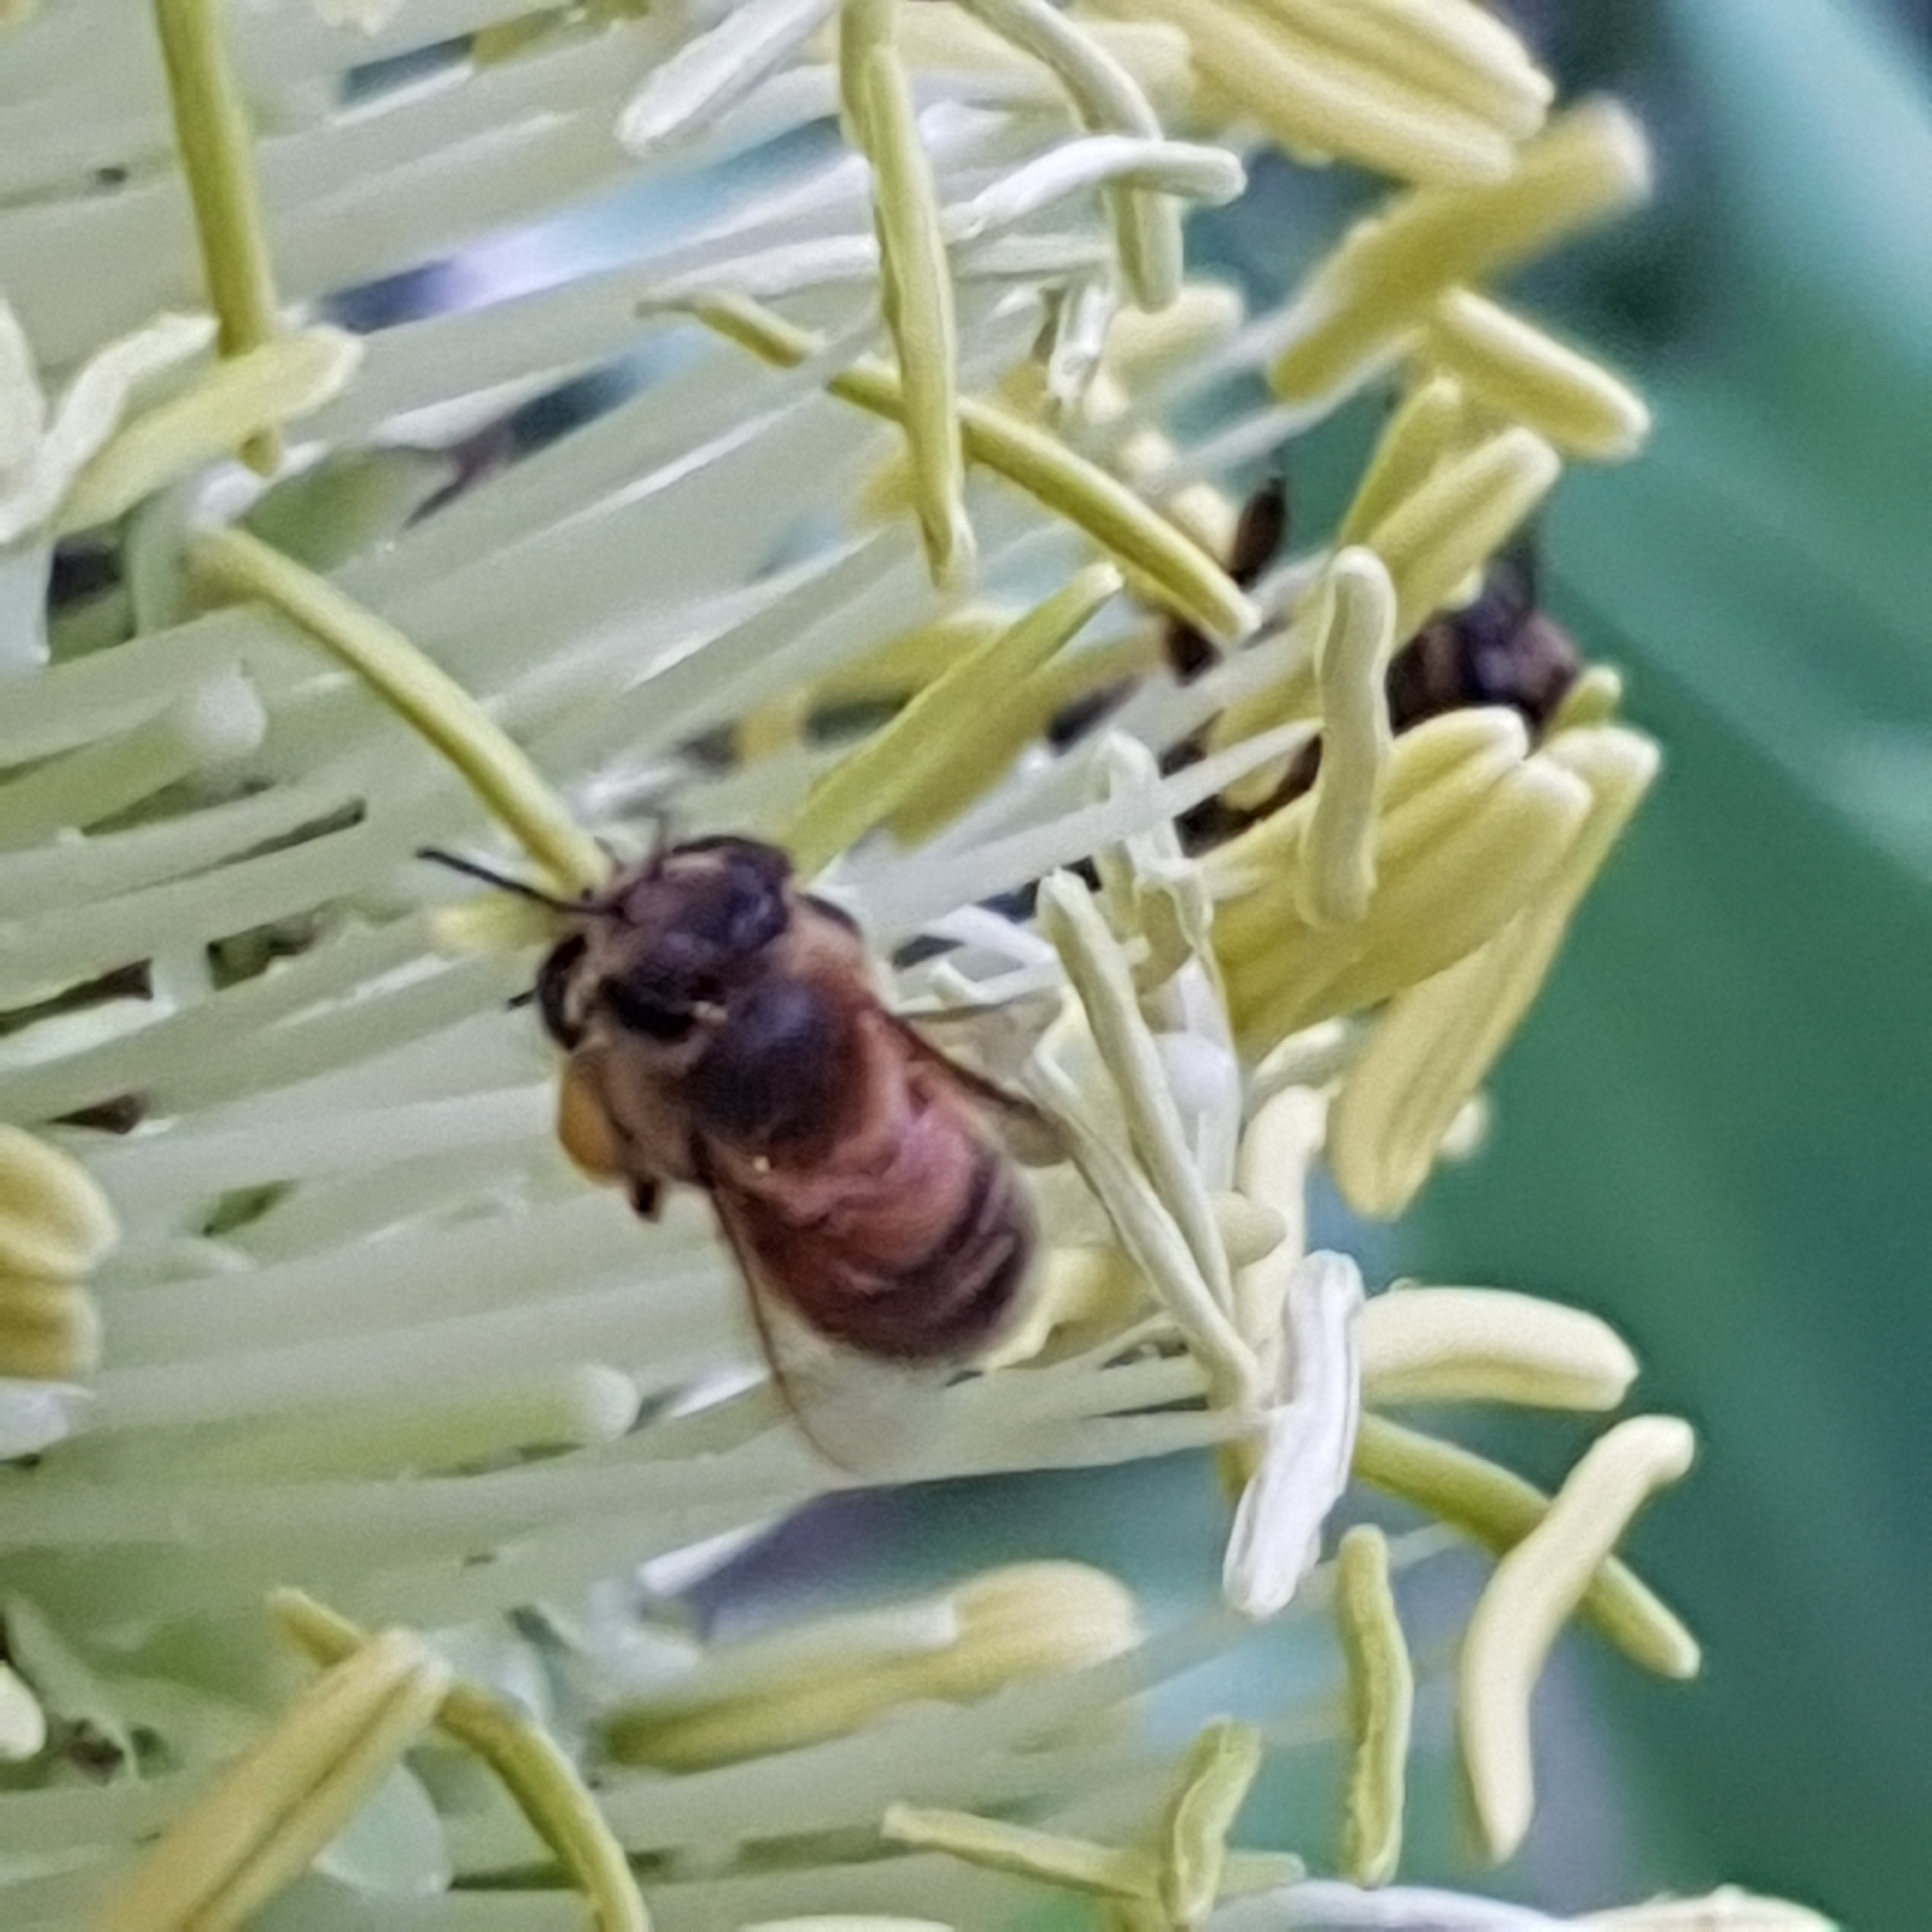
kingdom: Animalia
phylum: Arthropoda
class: Insecta
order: Hymenoptera
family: Apidae
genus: Apis
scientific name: Apis mellifera
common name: Honey bee
